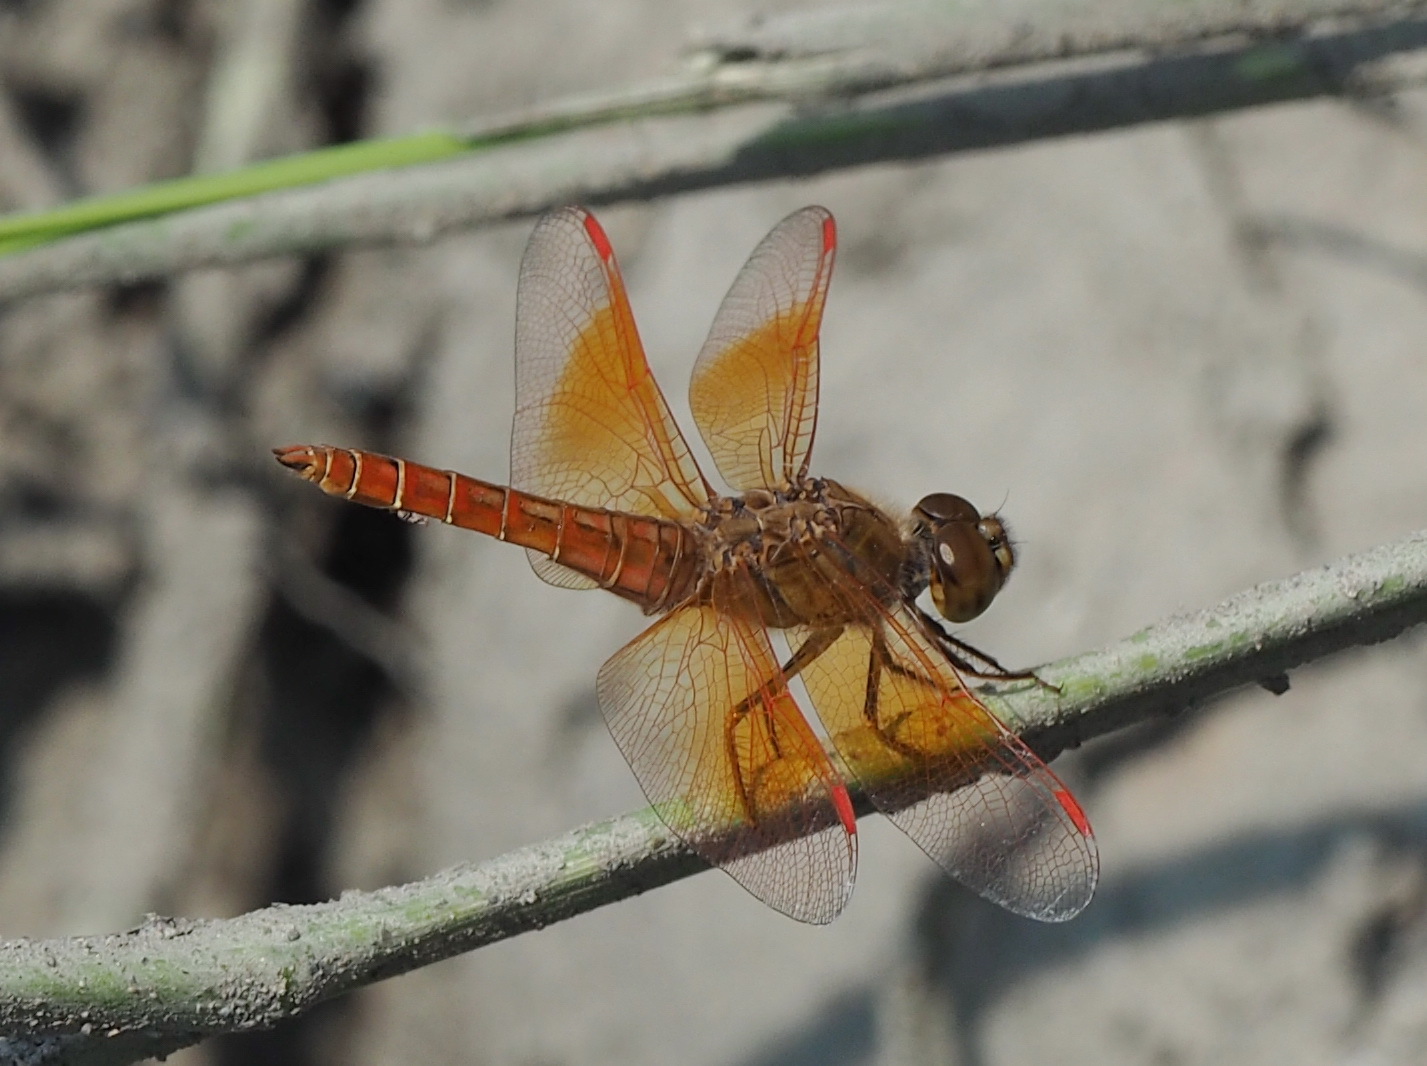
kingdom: Animalia
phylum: Arthropoda
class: Insecta
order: Odonata
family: Libellulidae
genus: Brachythemis
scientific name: Brachythemis contaminata
